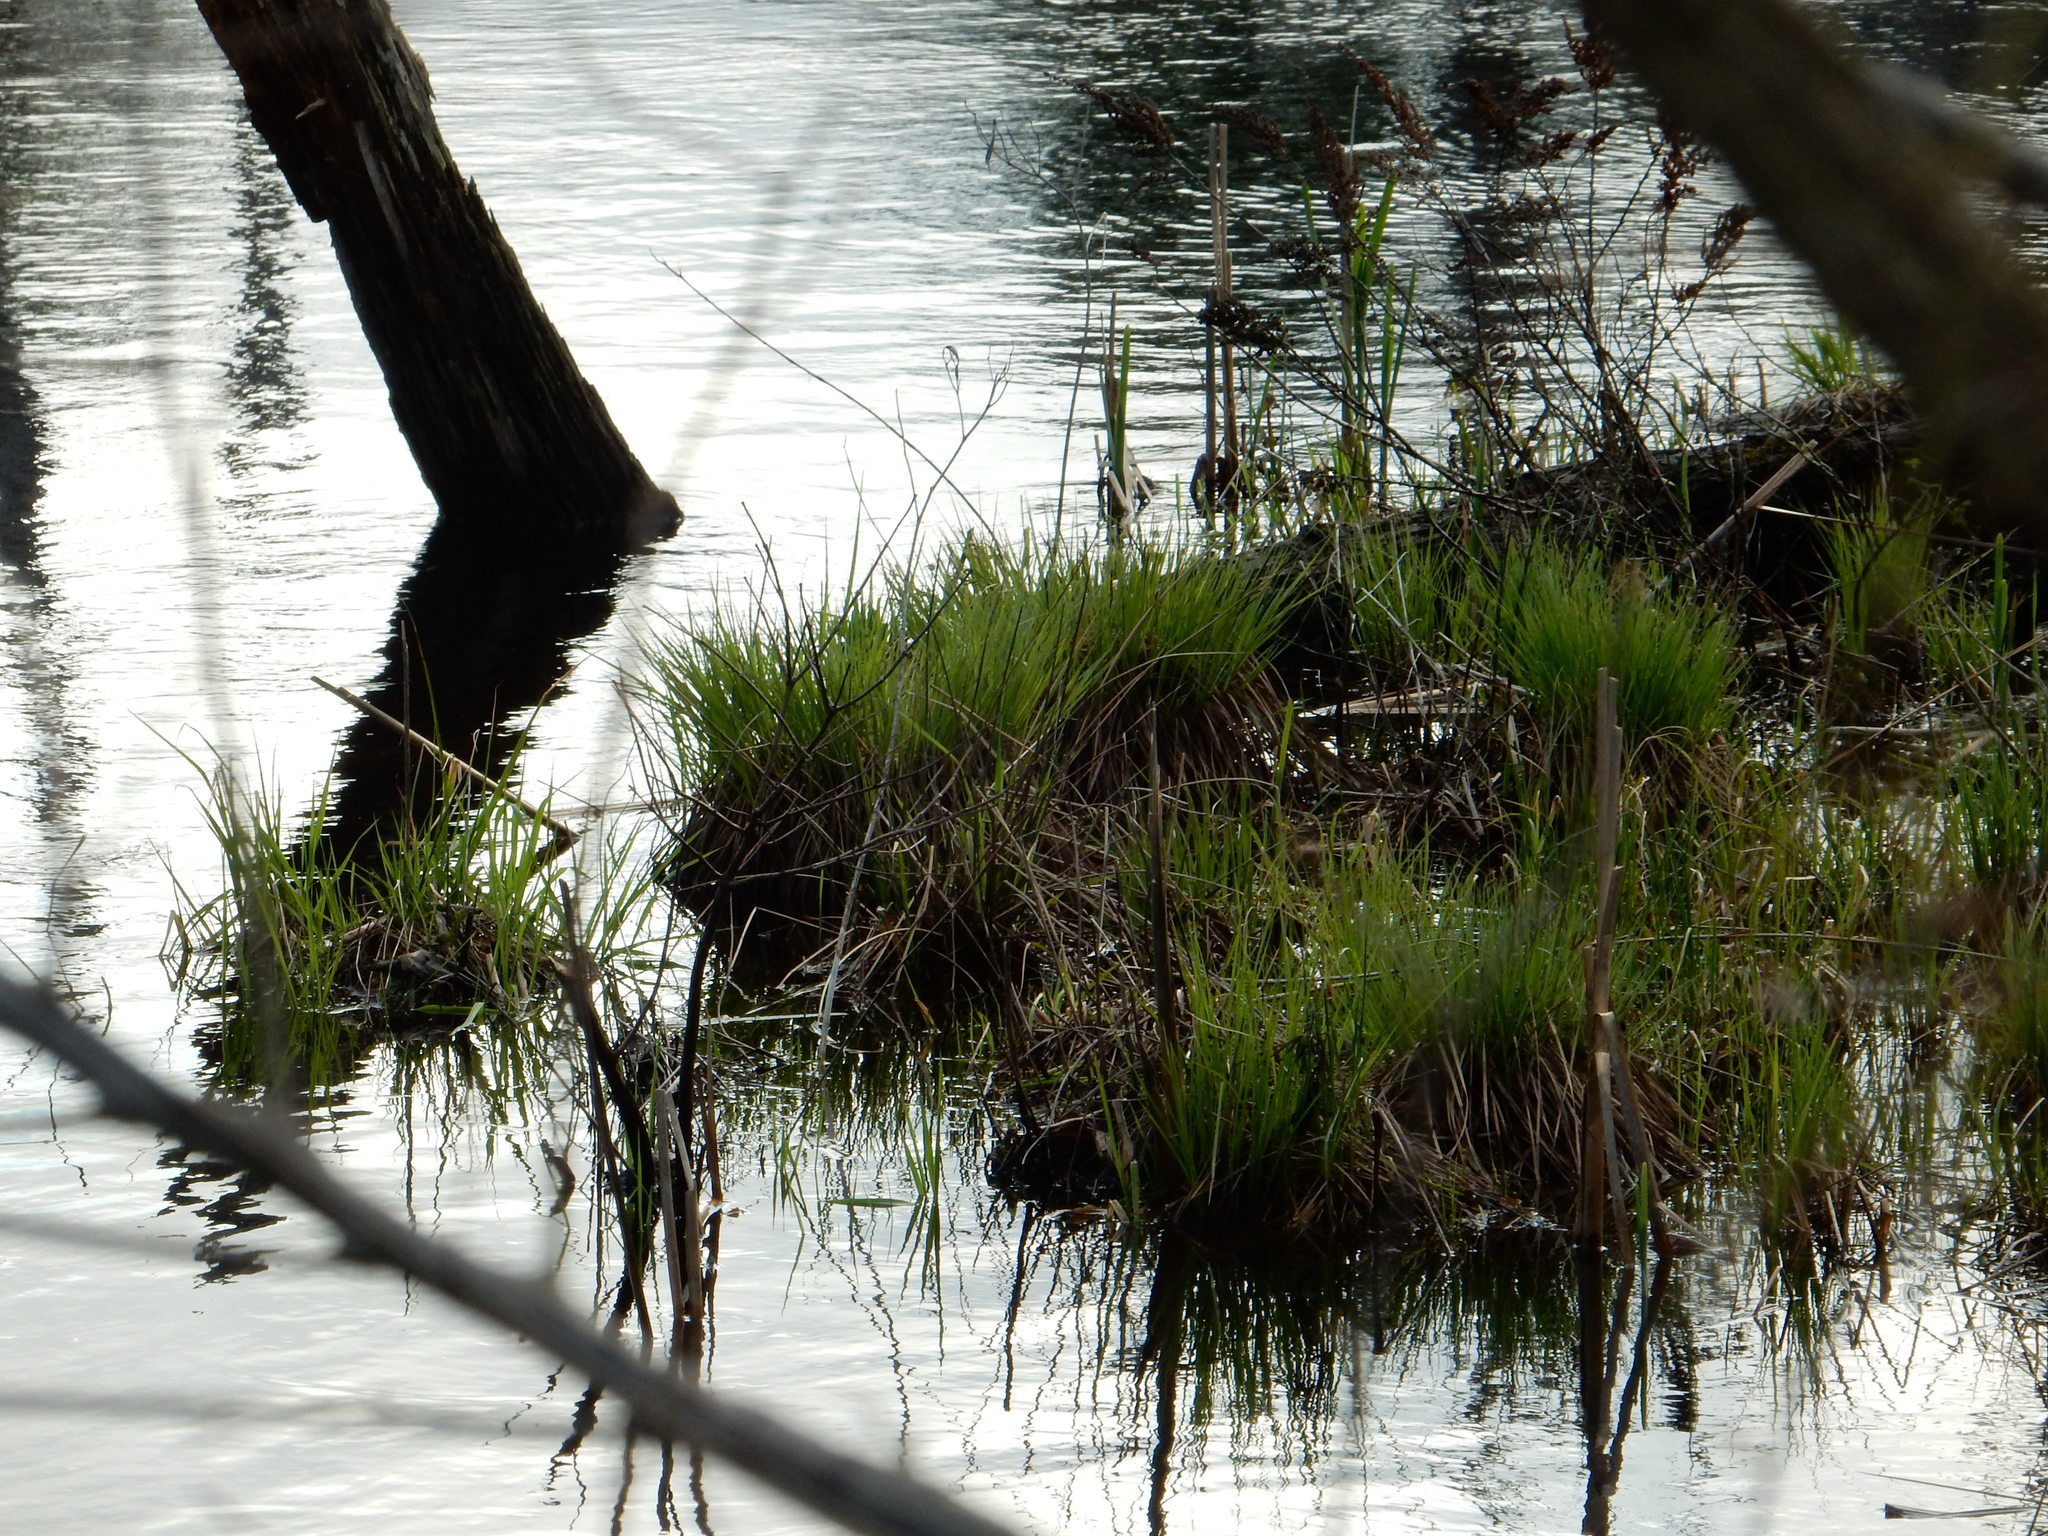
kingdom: Plantae
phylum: Tracheophyta
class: Liliopsida
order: Poales
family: Cyperaceae
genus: Carex
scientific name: Carex stricta
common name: Hummock sedge
